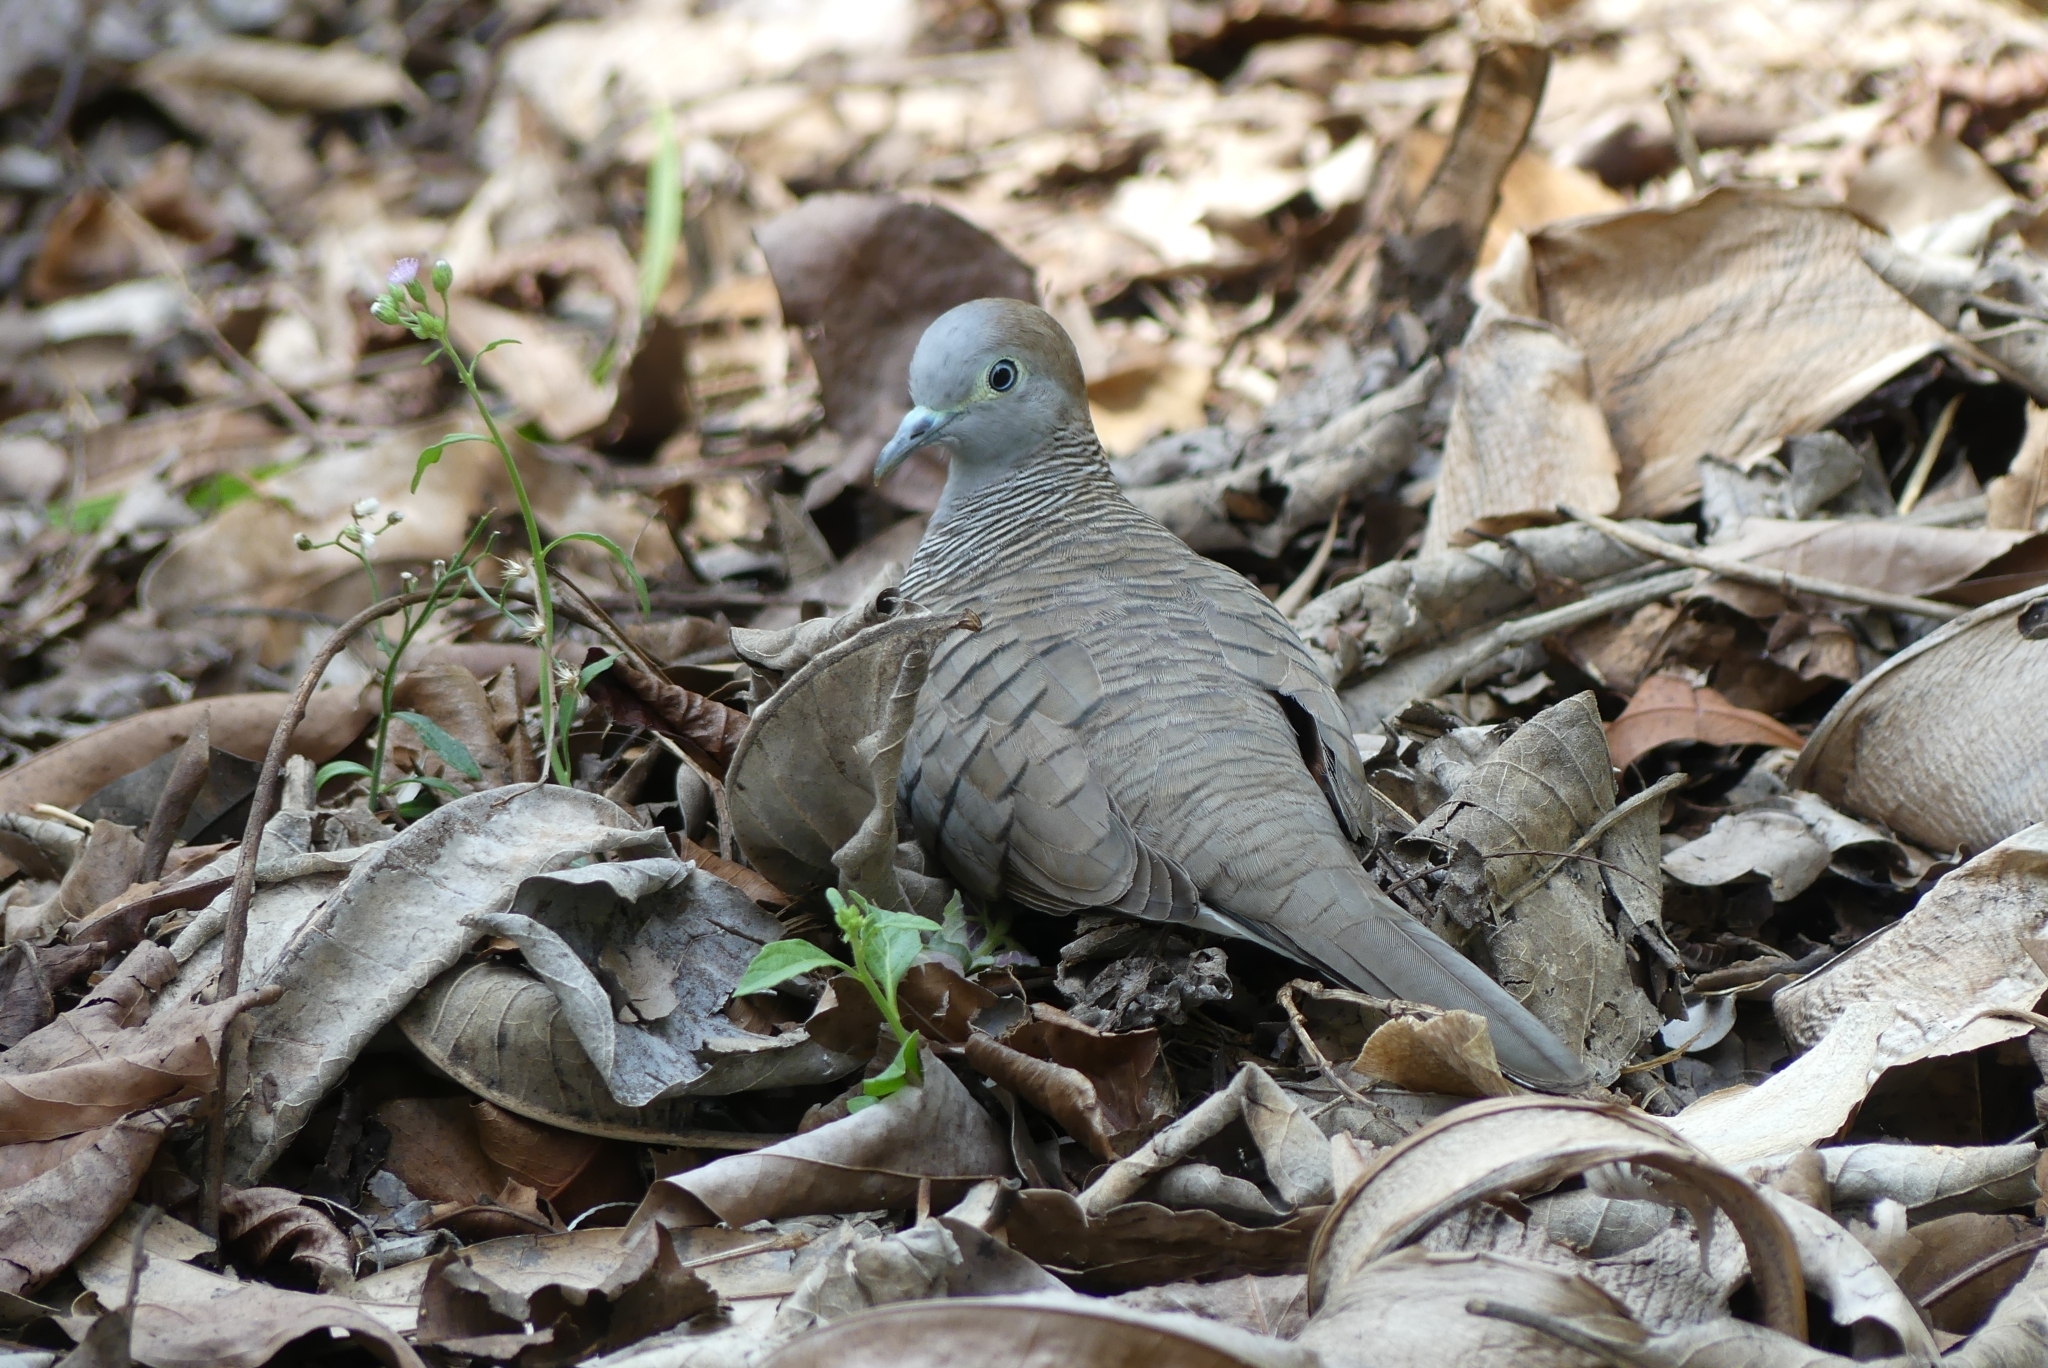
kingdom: Animalia
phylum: Chordata
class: Aves
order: Columbiformes
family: Columbidae
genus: Geopelia
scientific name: Geopelia striata
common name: Zebra dove
